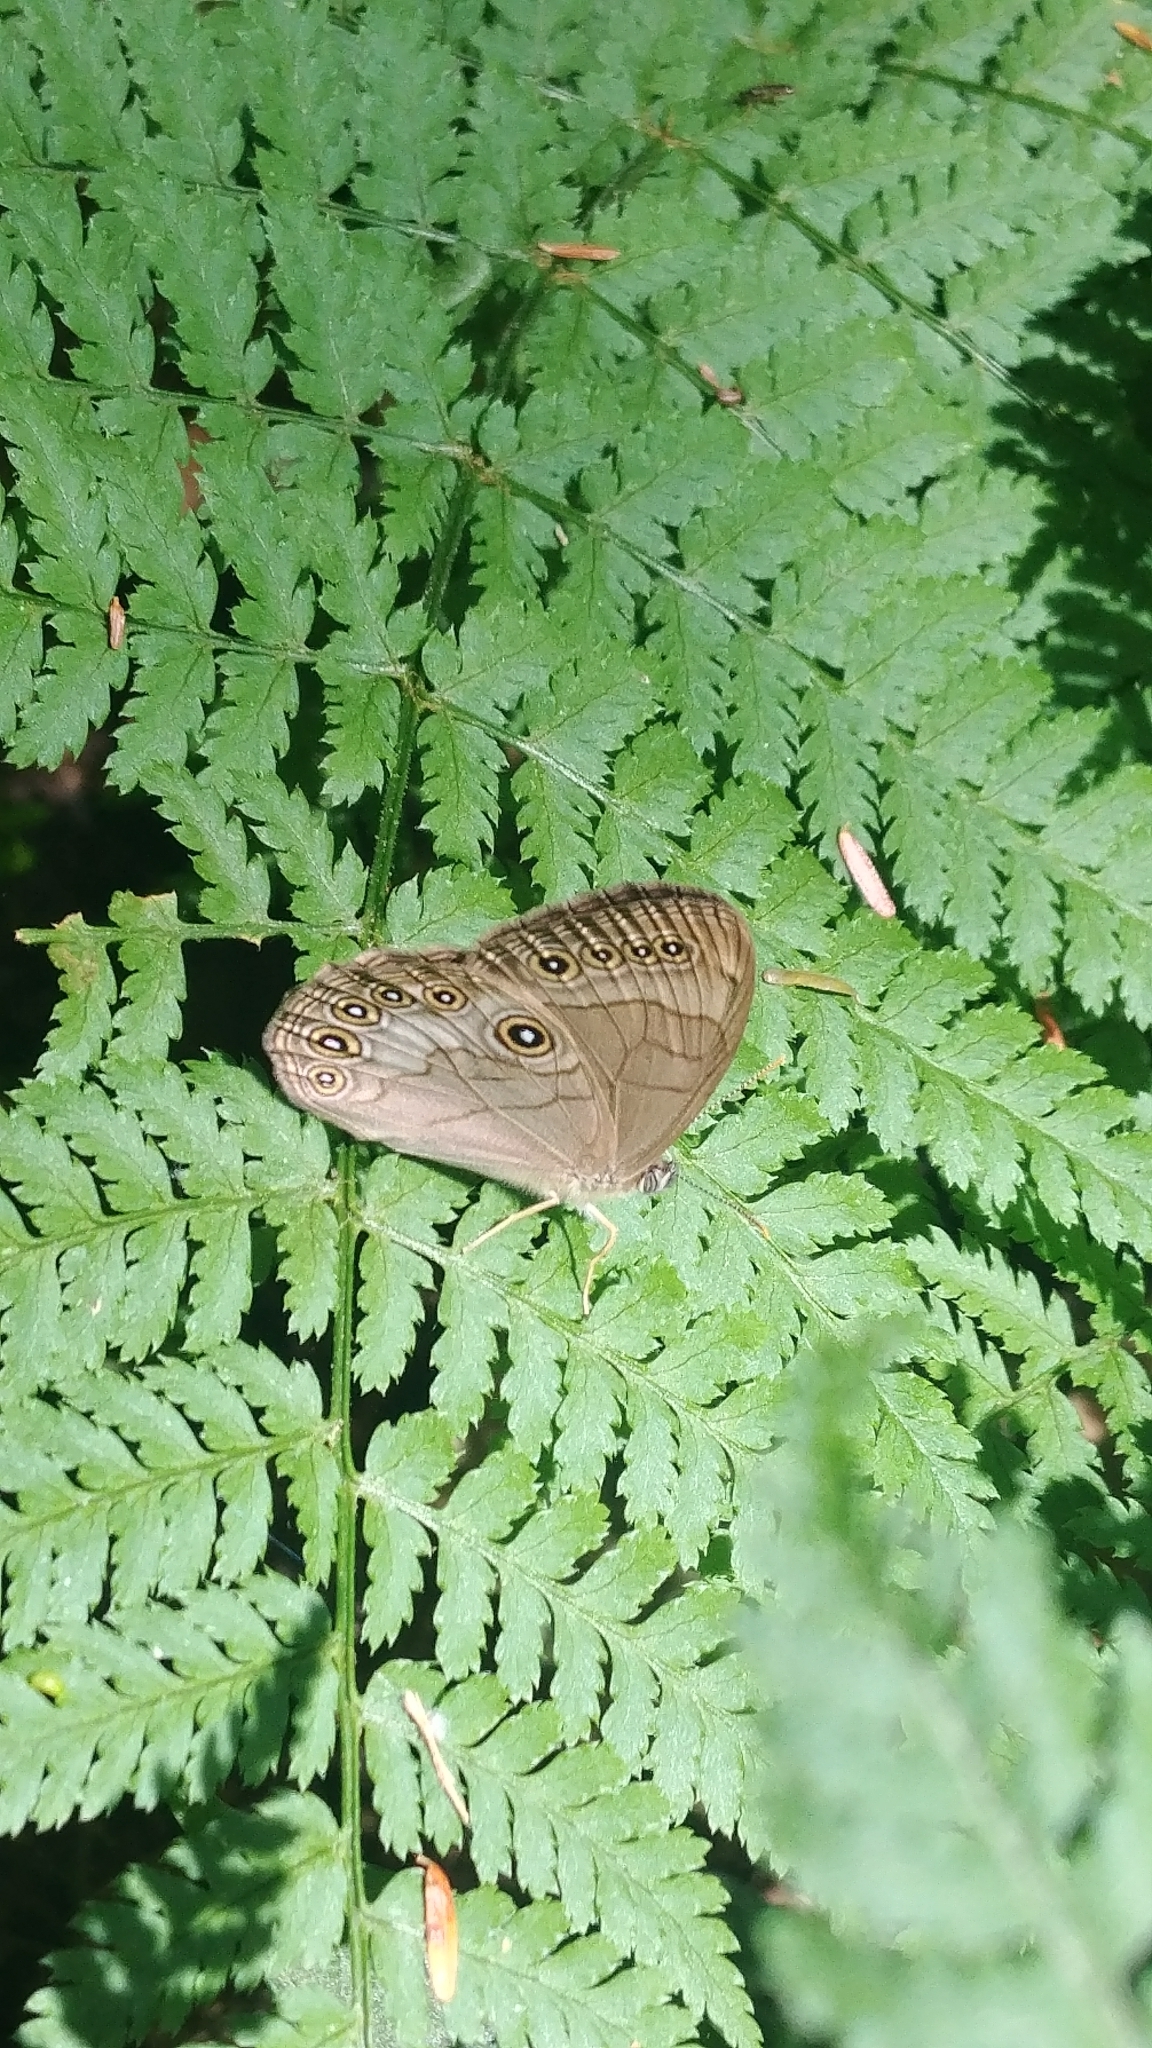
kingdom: Animalia
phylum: Arthropoda
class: Insecta
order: Lepidoptera
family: Nymphalidae
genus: Lethe
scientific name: Lethe eurydice
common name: Eyed brown
